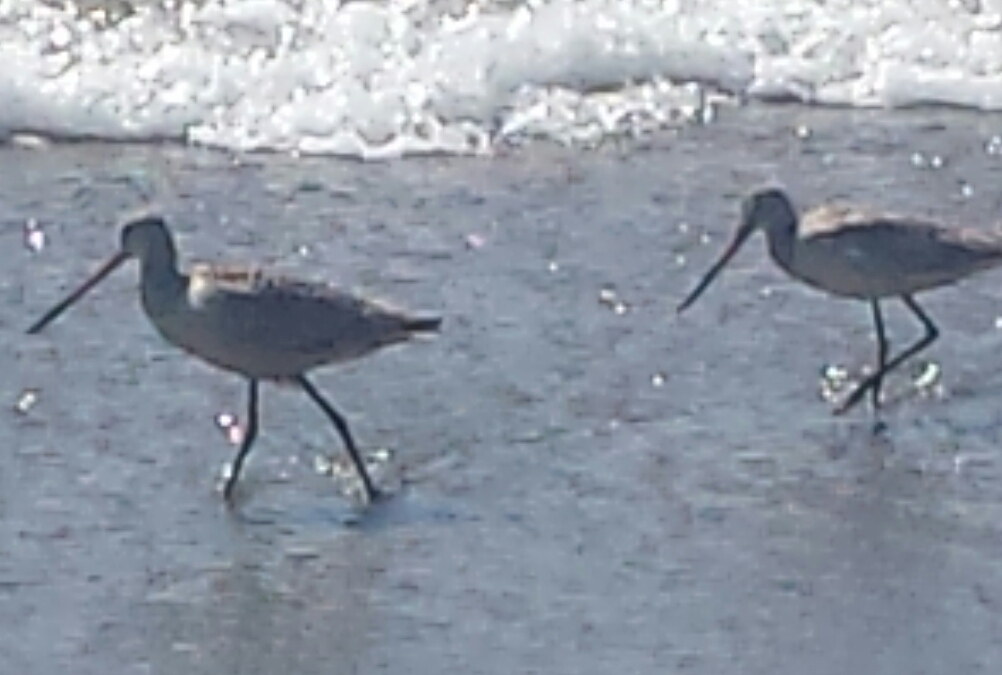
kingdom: Animalia
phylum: Chordata
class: Aves
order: Charadriiformes
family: Scolopacidae
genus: Limosa
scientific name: Limosa fedoa
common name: Marbled godwit
